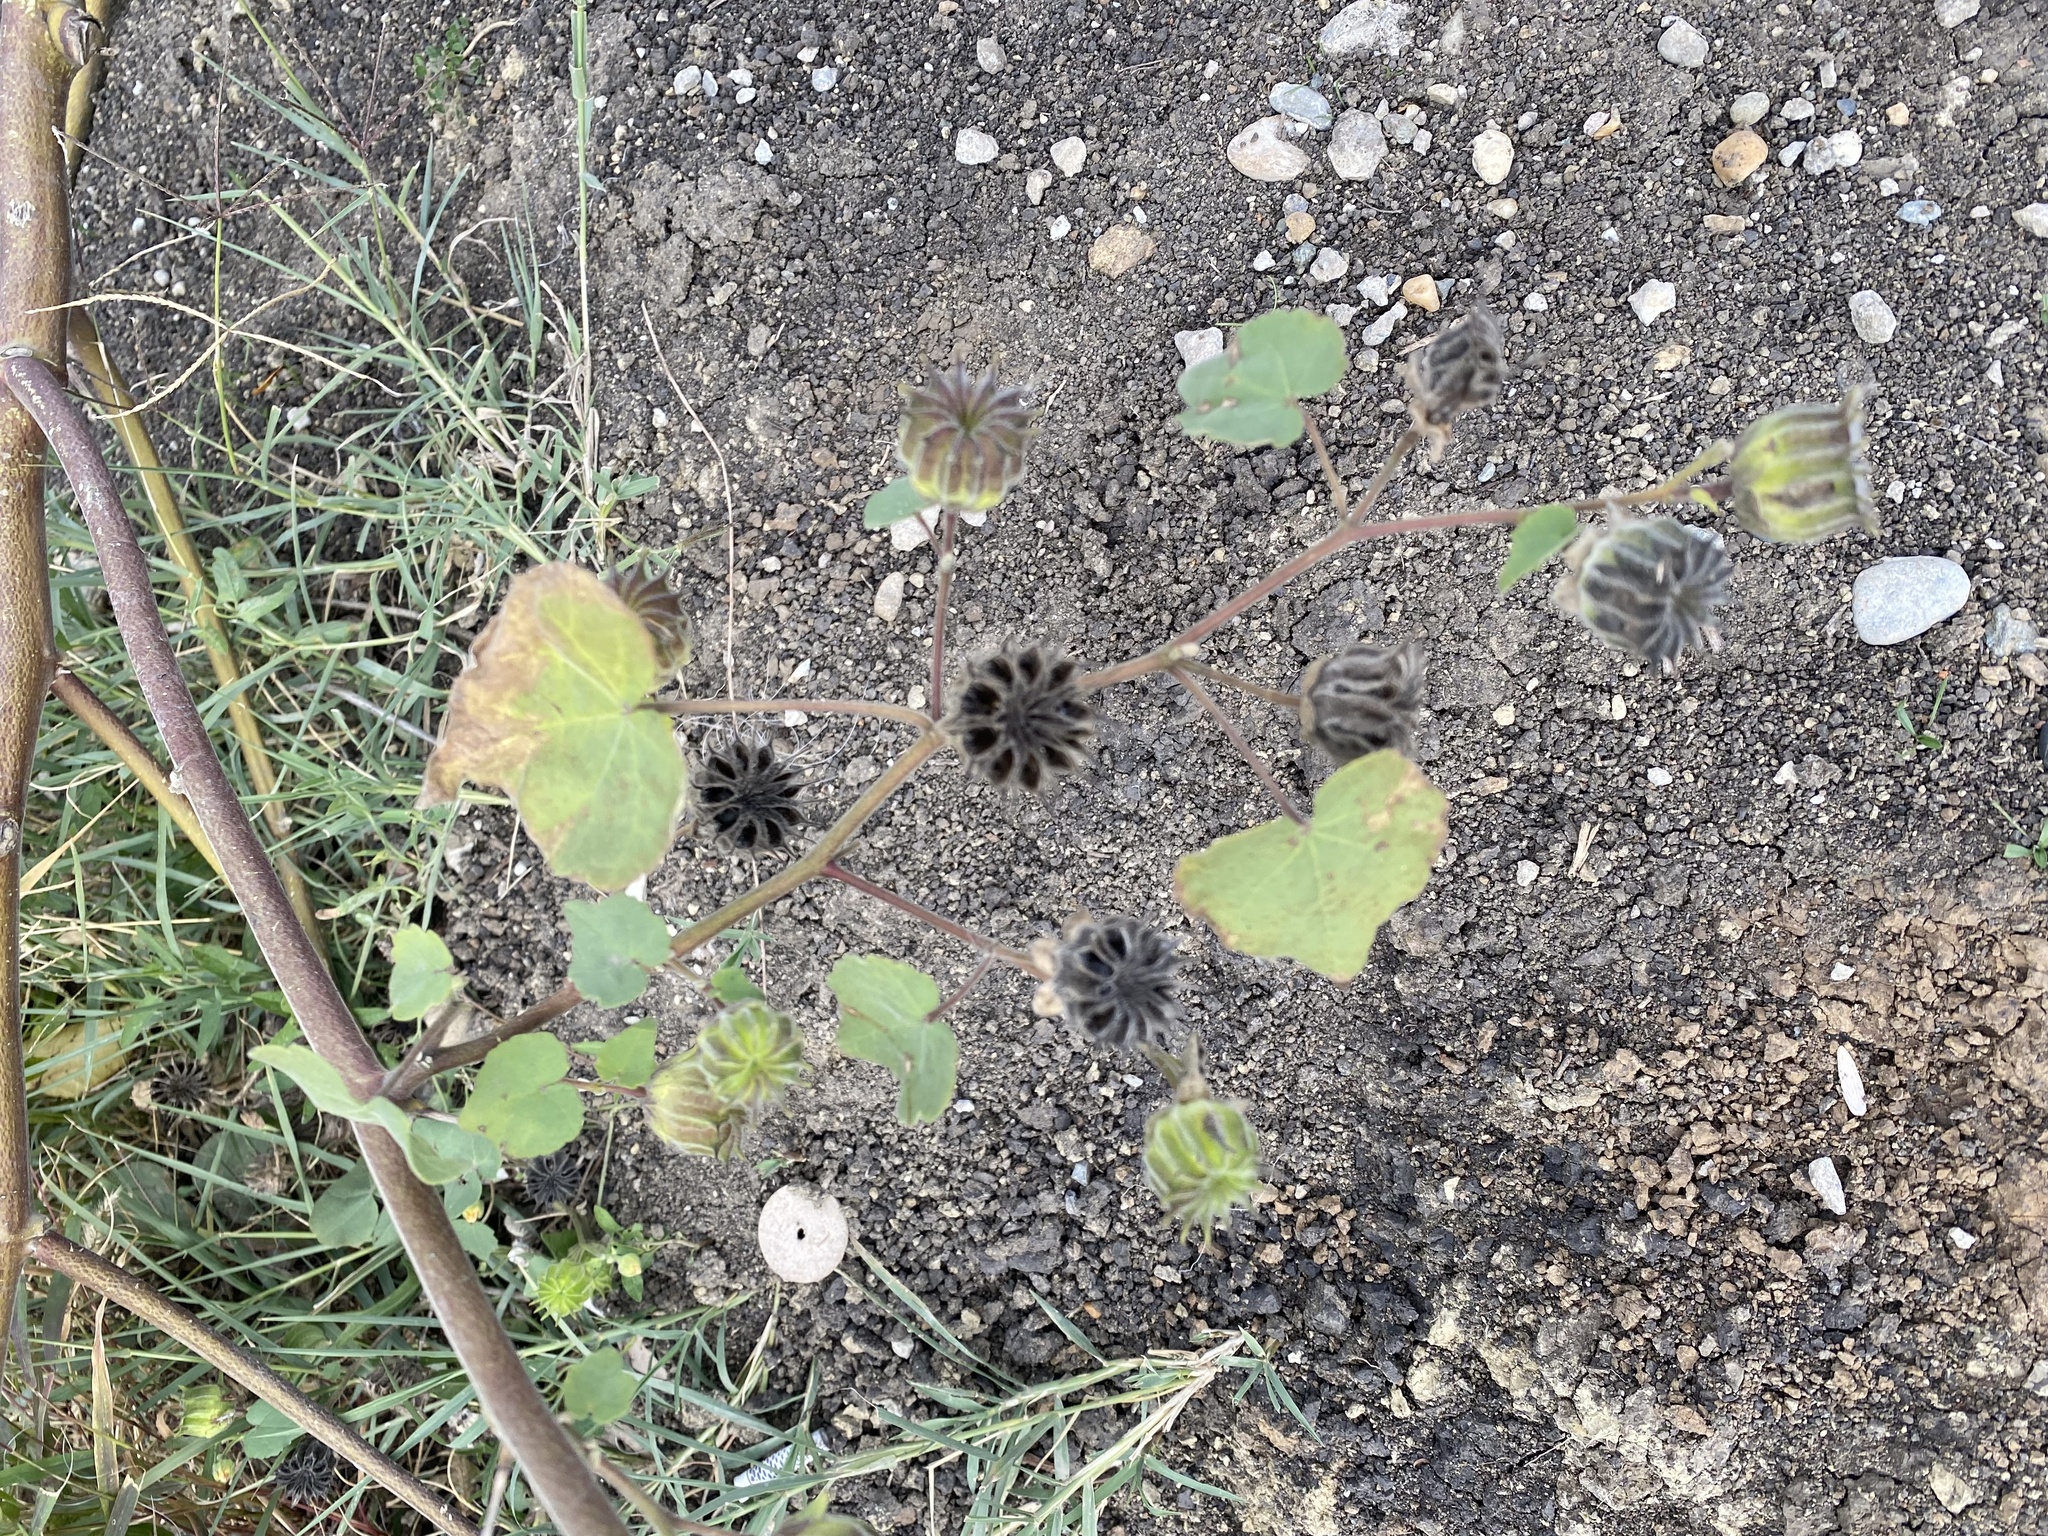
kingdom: Plantae
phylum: Tracheophyta
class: Magnoliopsida
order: Malvales
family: Malvaceae
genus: Abutilon
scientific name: Abutilon theophrasti
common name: Velvetleaf
